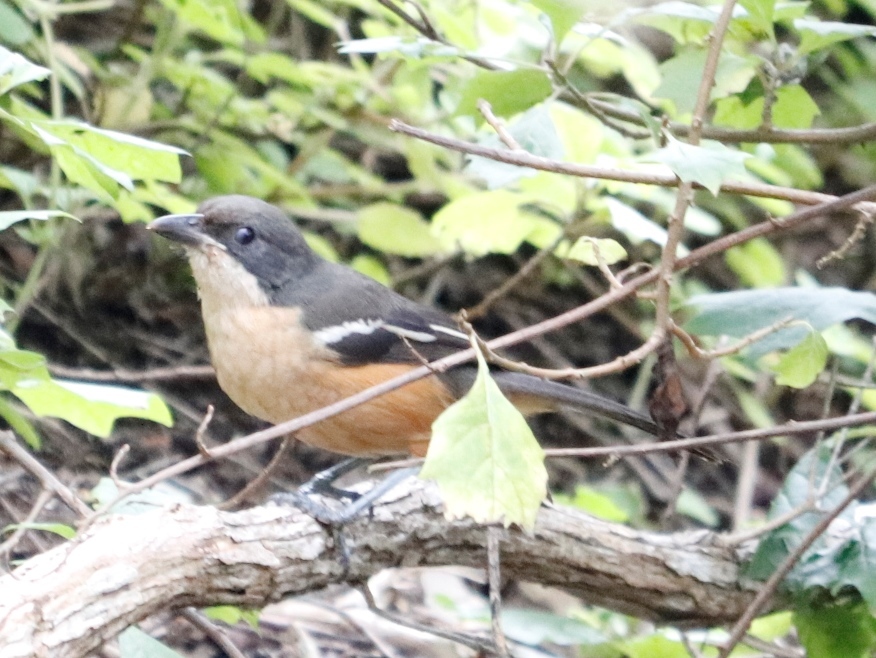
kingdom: Animalia
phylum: Chordata
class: Aves
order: Passeriformes
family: Malaconotidae
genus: Laniarius
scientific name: Laniarius ferrugineus
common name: Southern boubou
